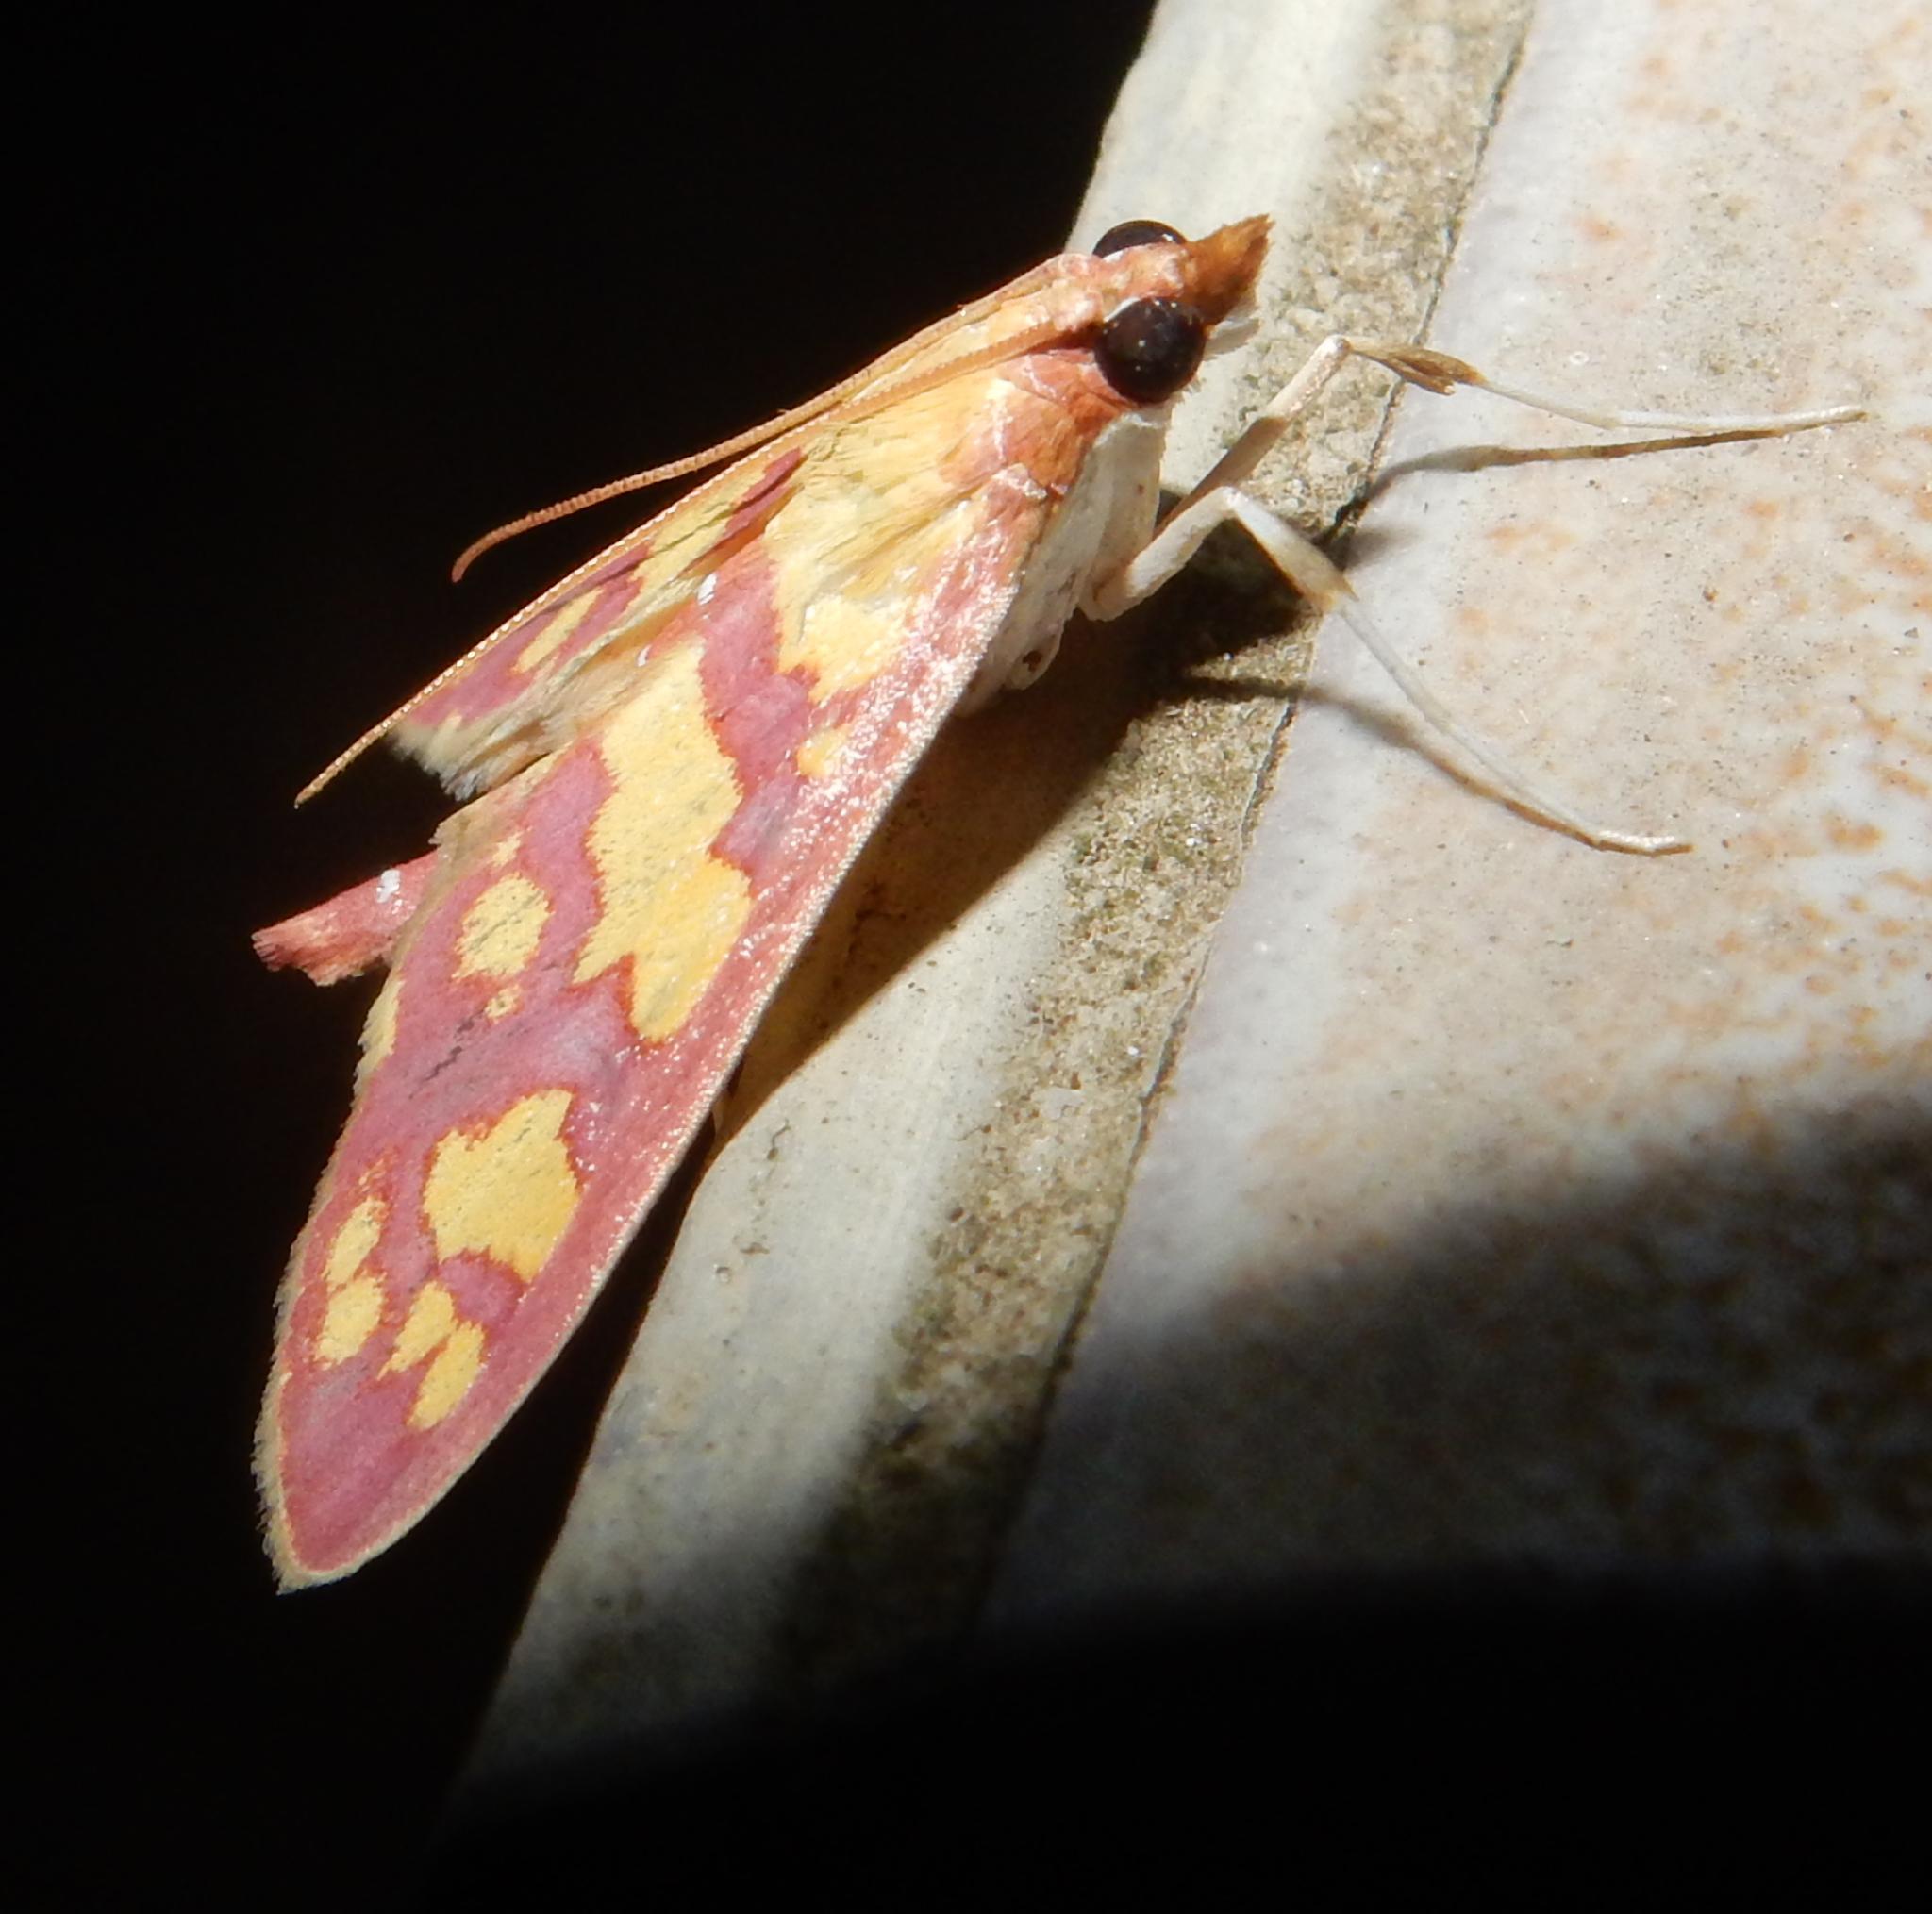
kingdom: Animalia
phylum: Arthropoda
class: Insecta
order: Lepidoptera
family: Crambidae
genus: Ischnurges
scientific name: Ischnurges Stenochora lancinalis
